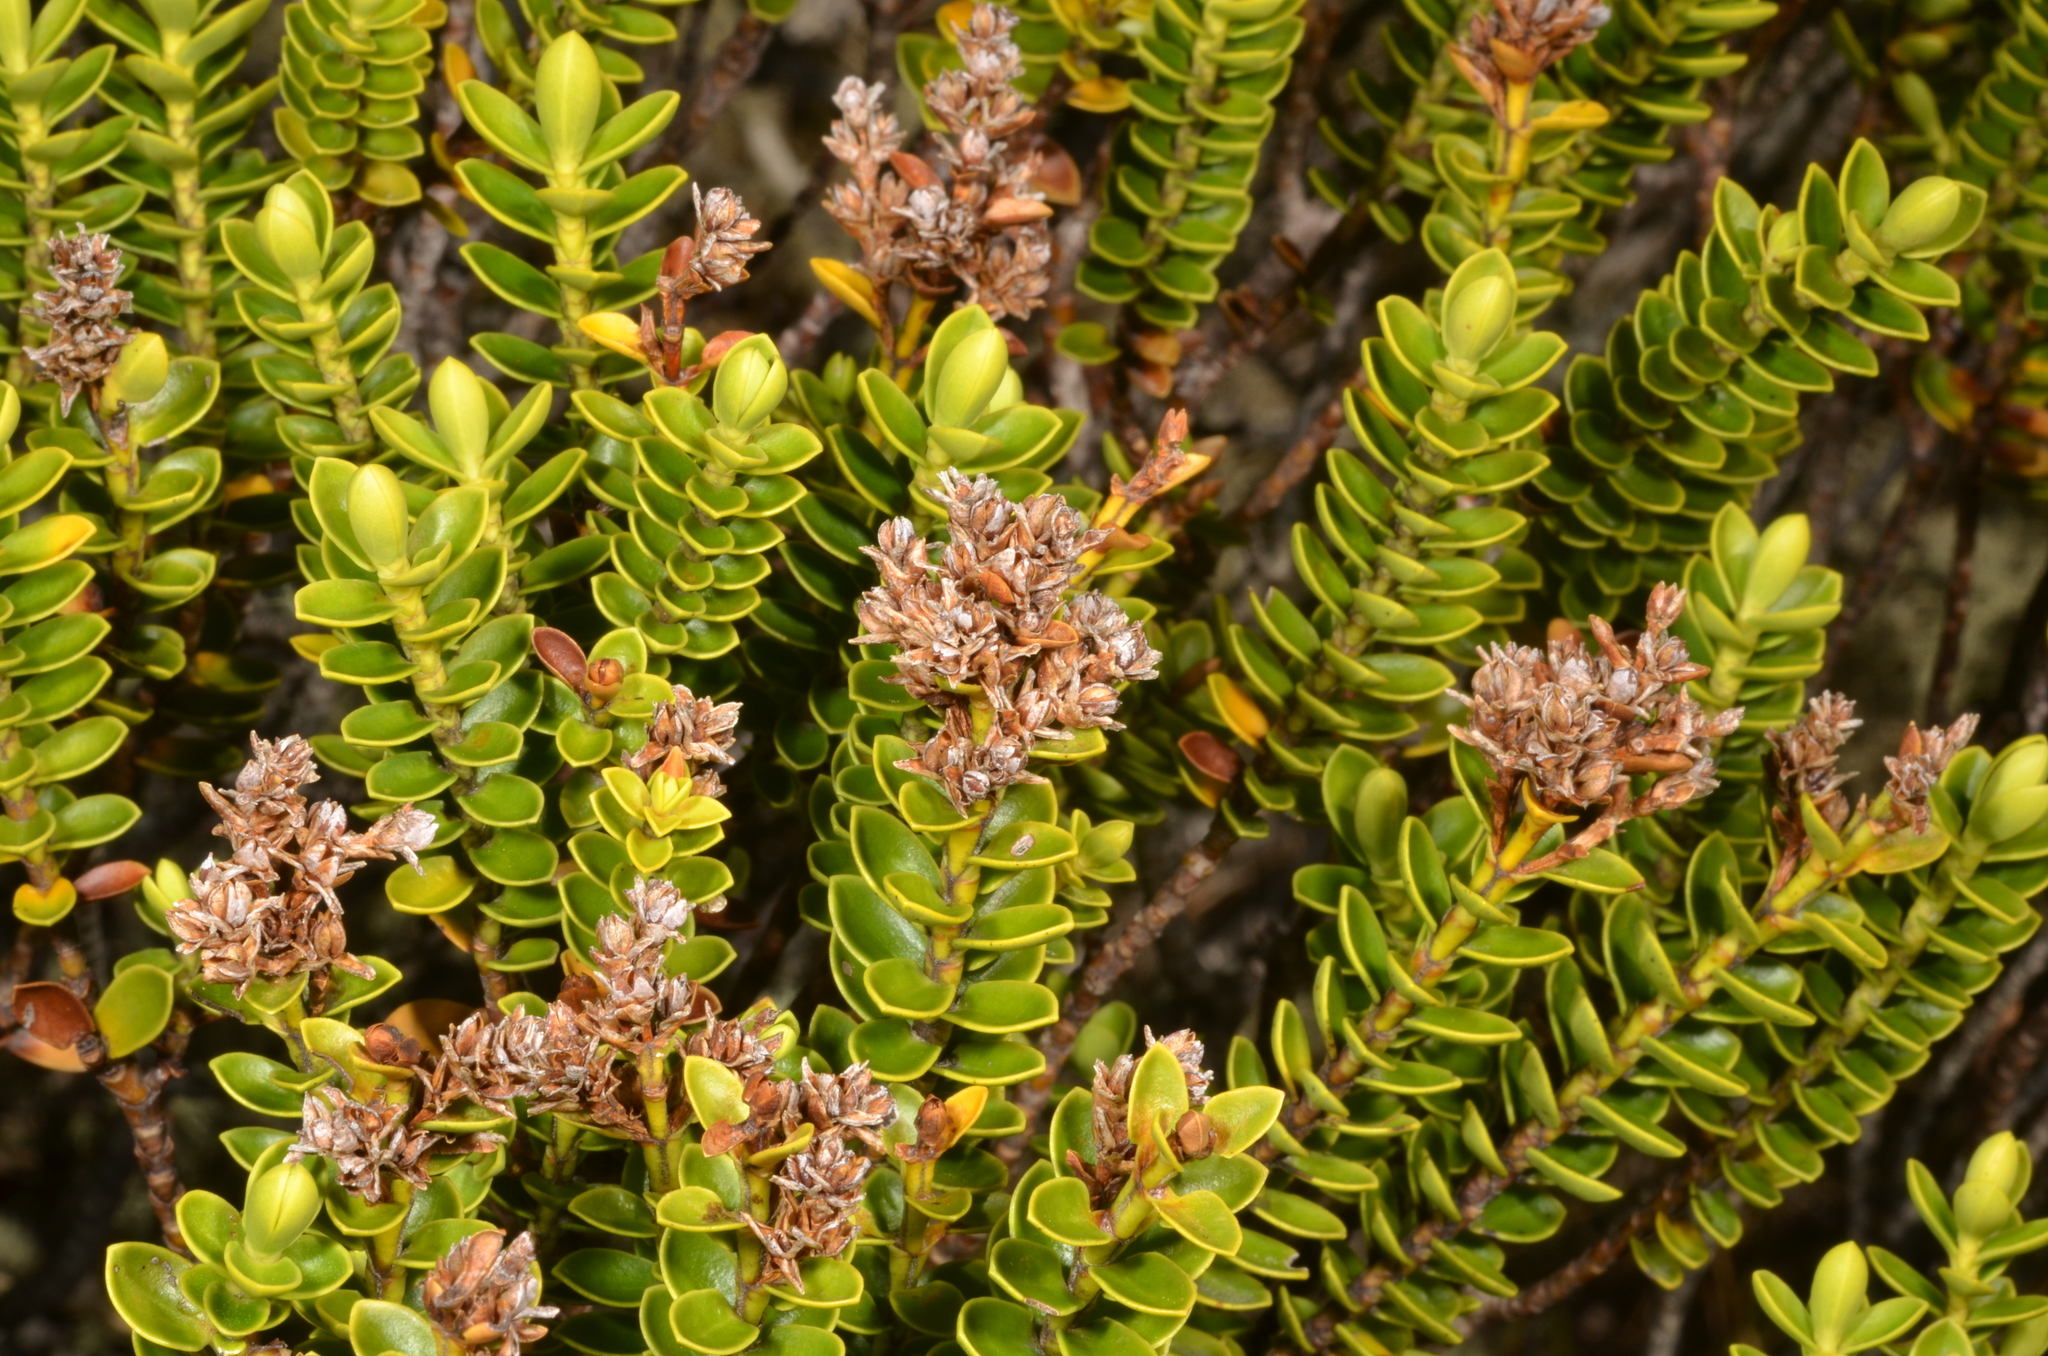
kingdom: Plantae
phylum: Tracheophyta
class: Magnoliopsida
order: Lamiales
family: Plantaginaceae
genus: Veronica
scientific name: Veronica odora
